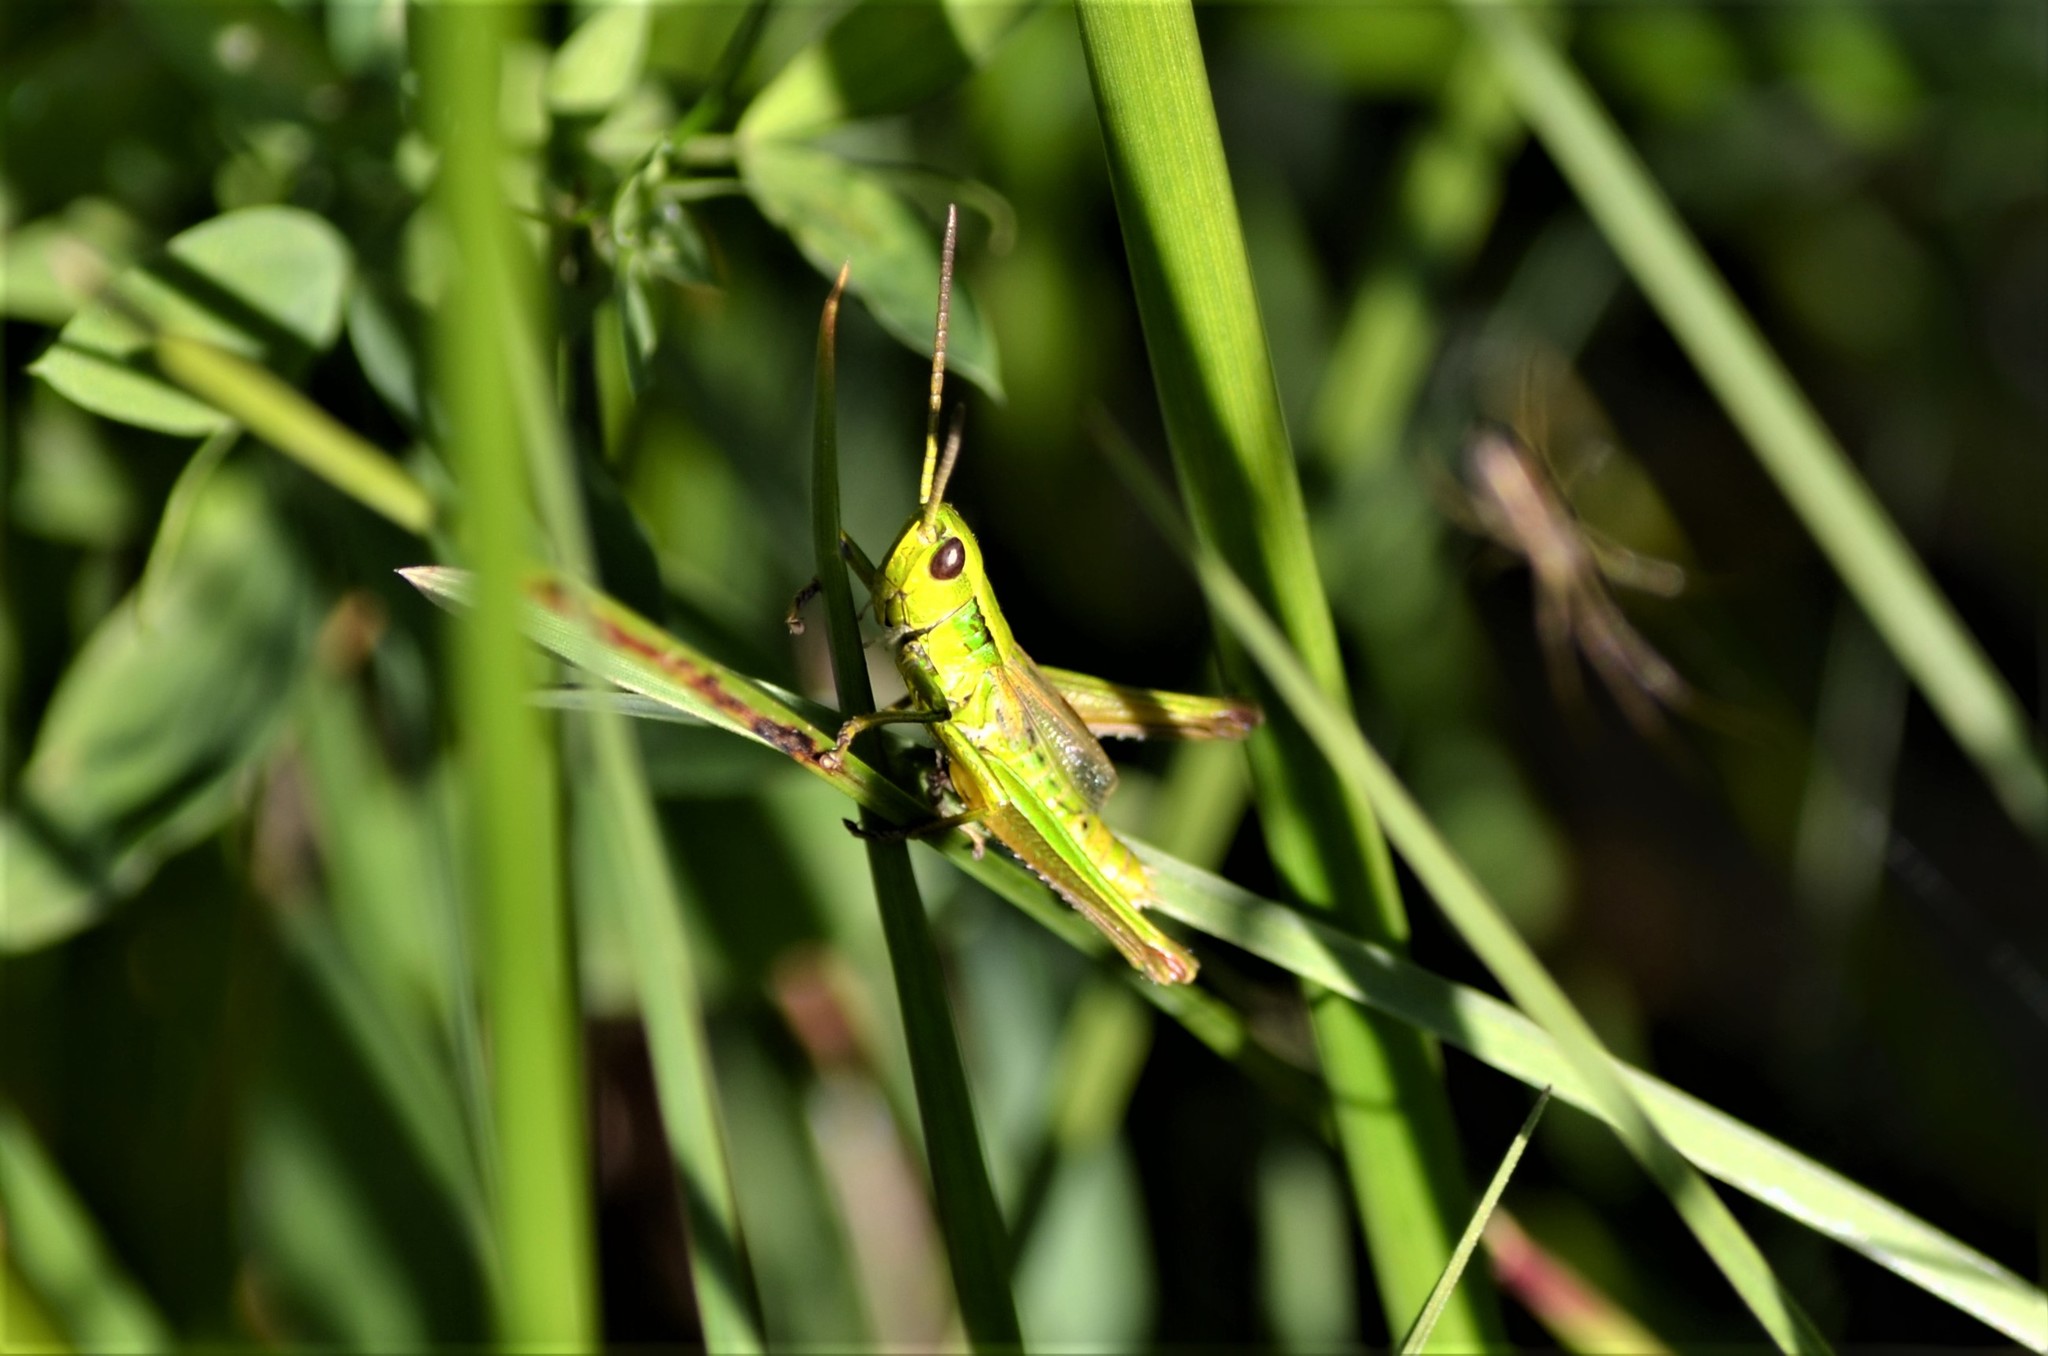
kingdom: Animalia
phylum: Arthropoda
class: Insecta
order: Orthoptera
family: Acrididae
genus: Euthystira
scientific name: Euthystira brachyptera
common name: Small gold grasshopper
